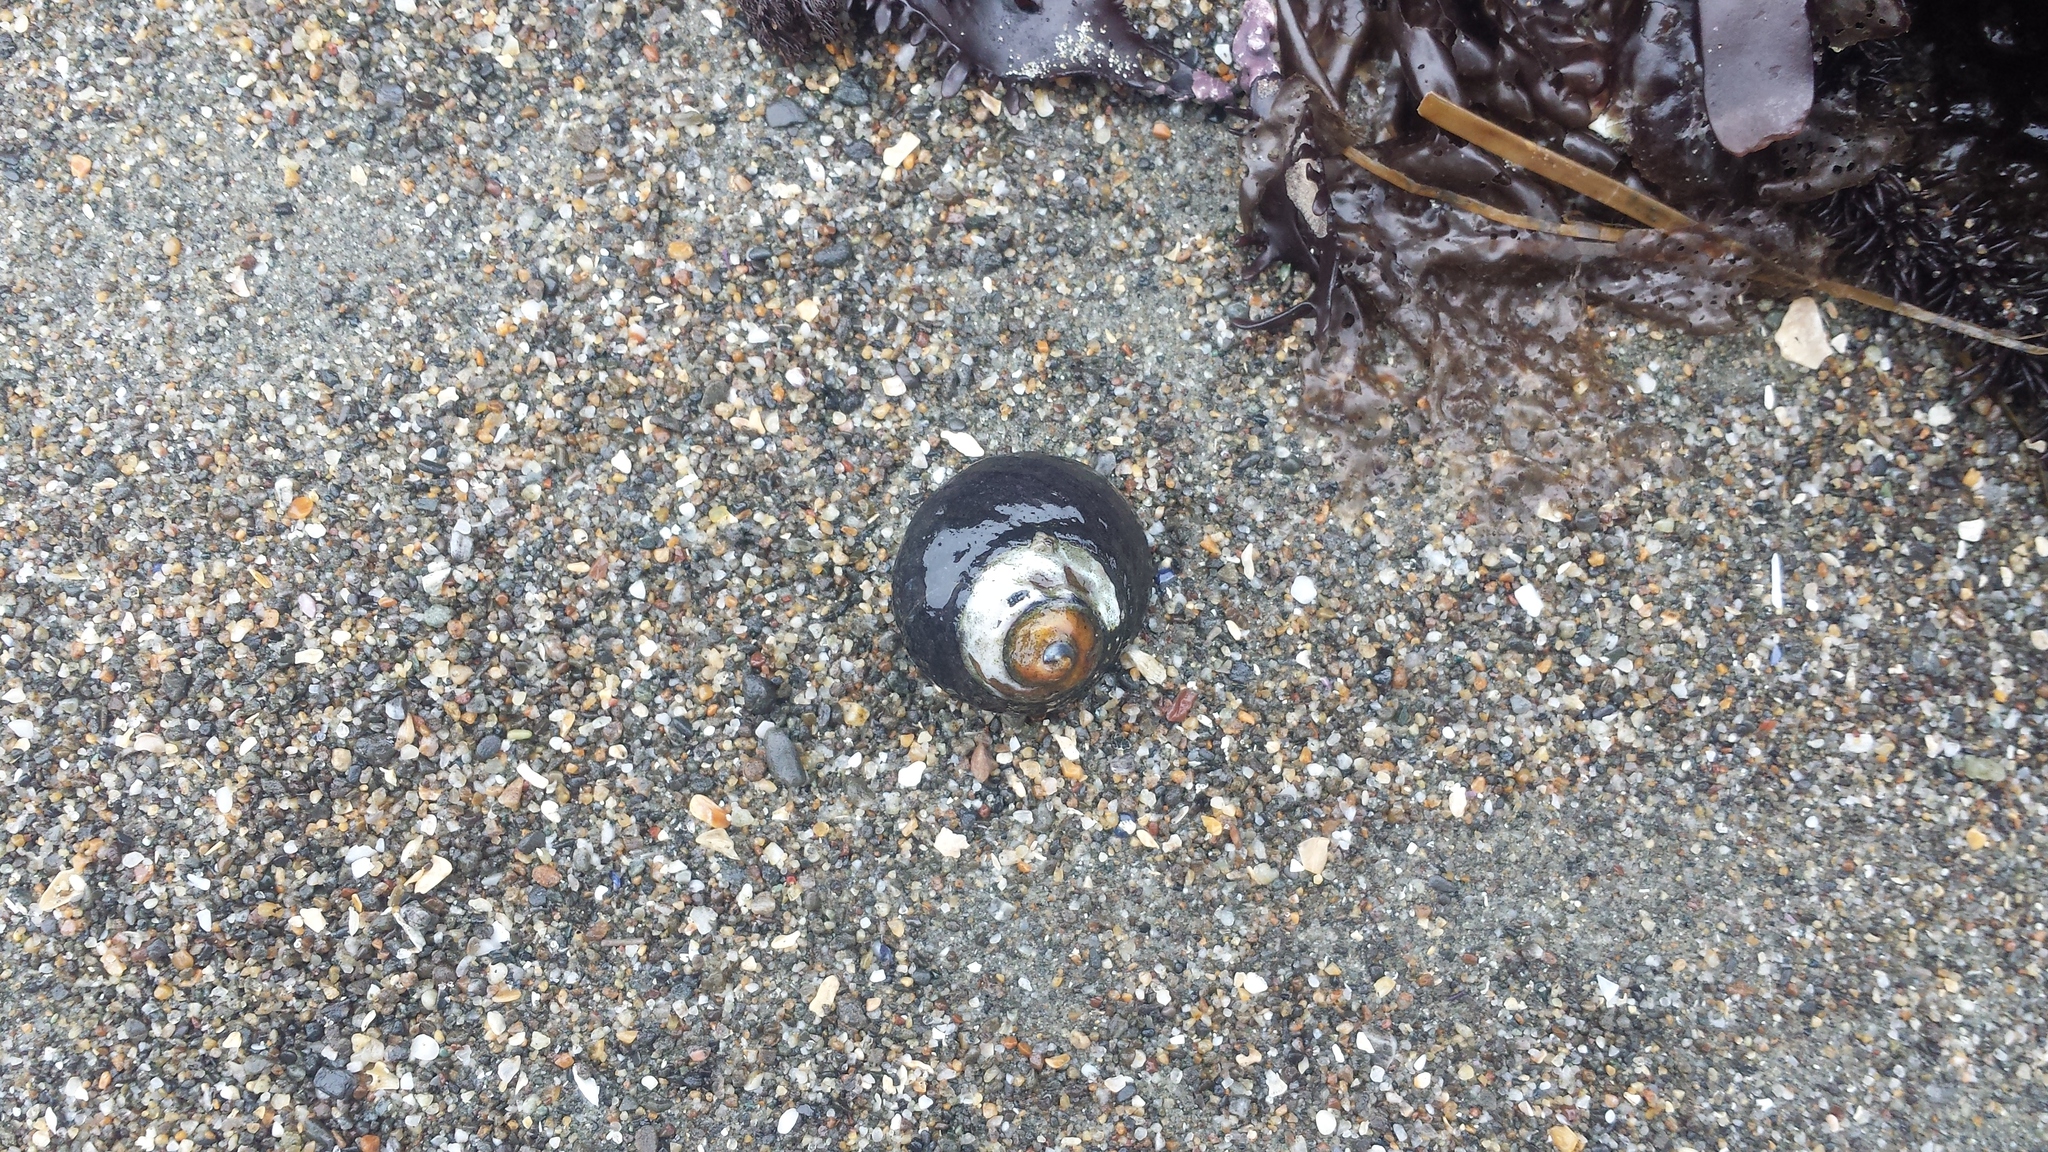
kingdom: Animalia
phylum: Mollusca
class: Gastropoda
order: Trochida
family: Tegulidae
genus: Tegula
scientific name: Tegula funebralis
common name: Black tegula
